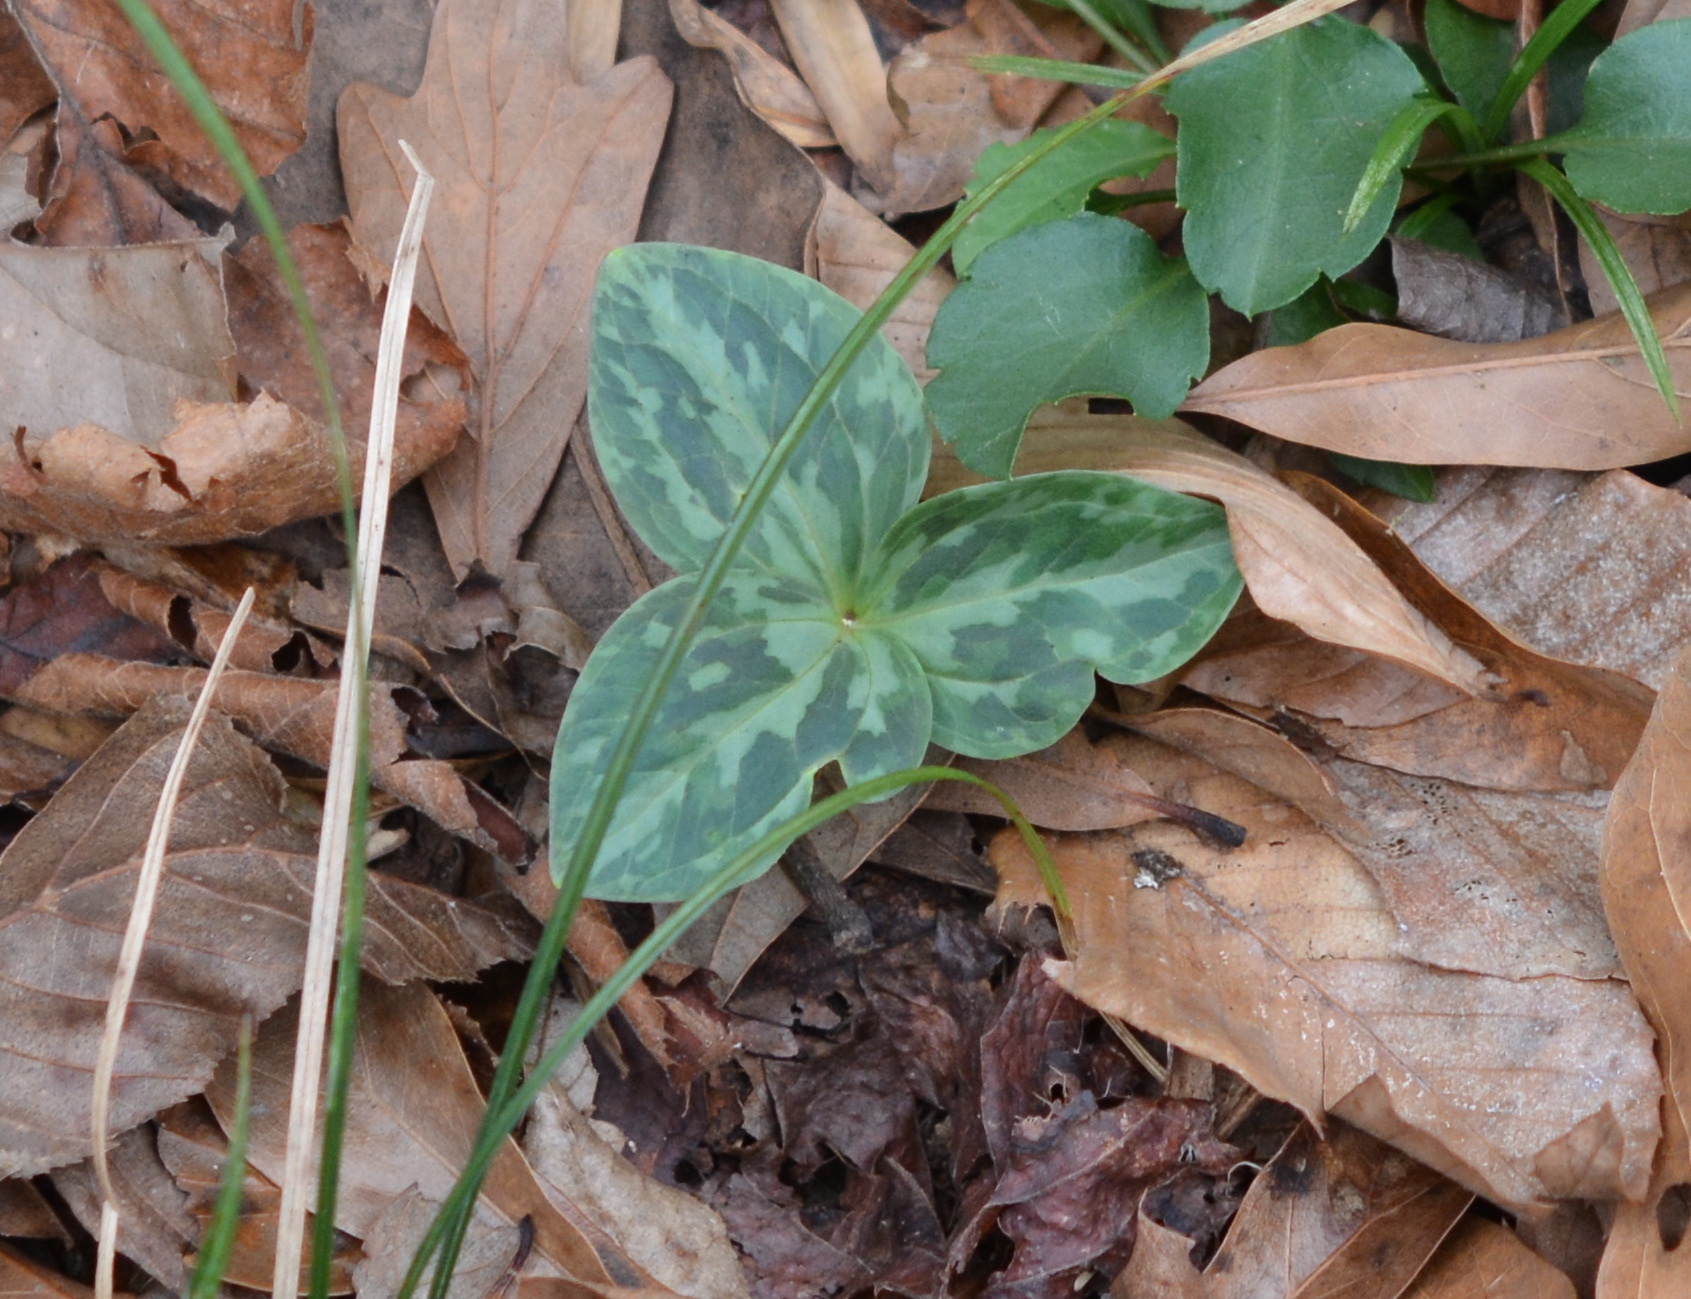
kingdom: Plantae
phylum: Tracheophyta
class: Liliopsida
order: Liliales
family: Melanthiaceae
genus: Trillium
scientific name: Trillium foetidissimum
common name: Mississippi river trillium
